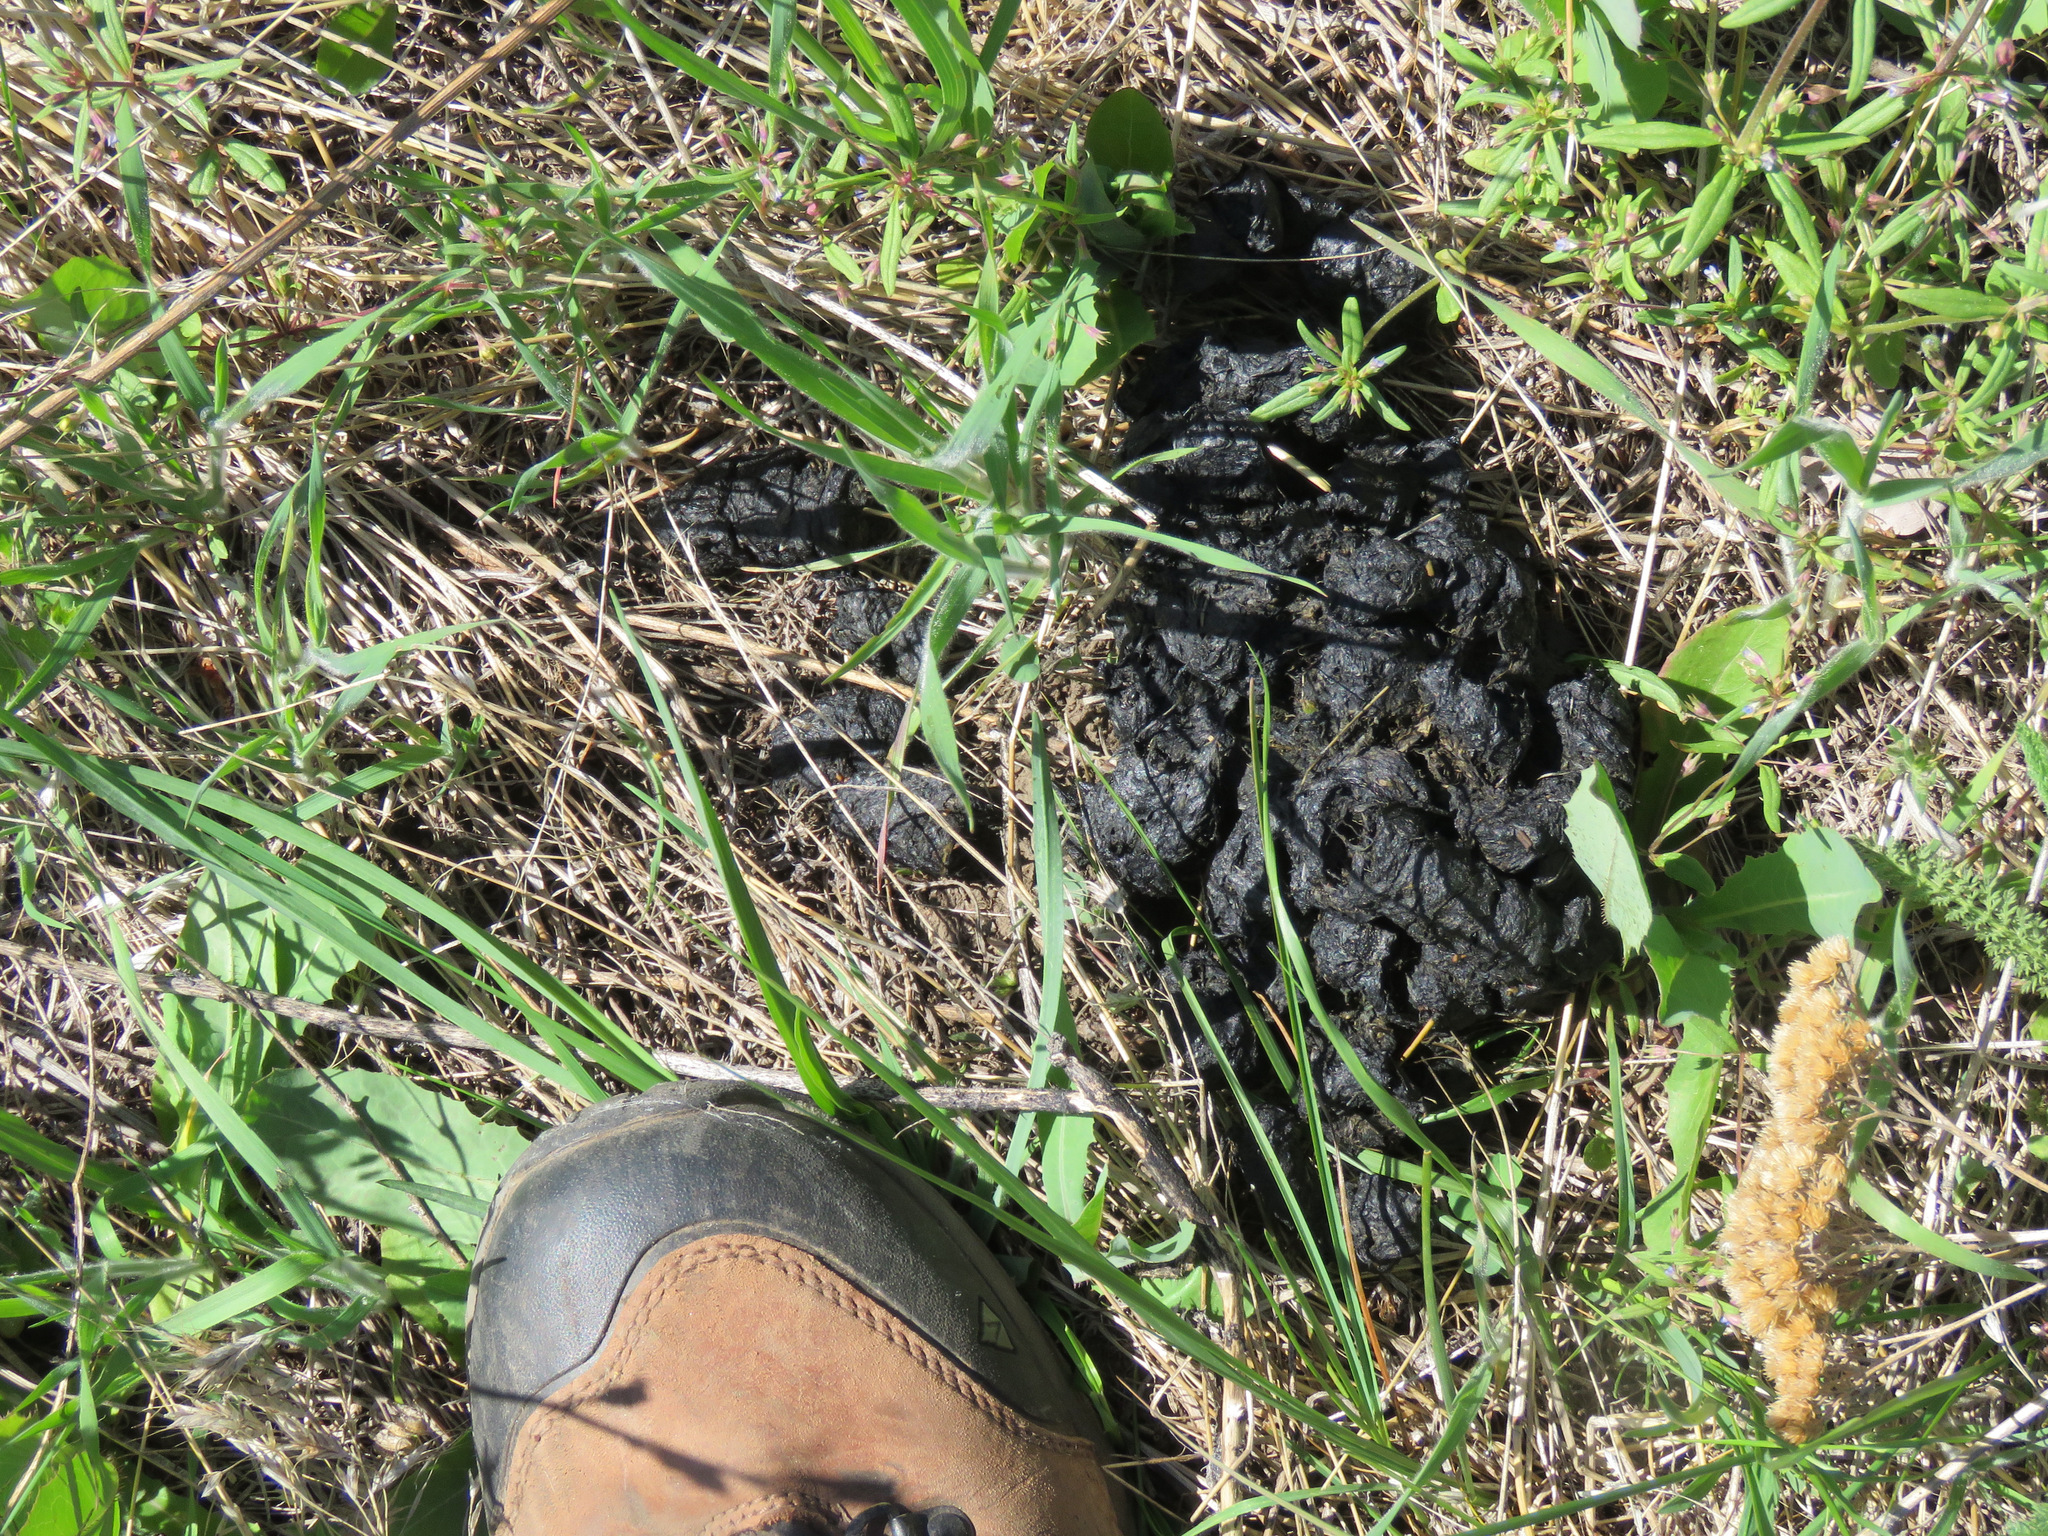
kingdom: Animalia
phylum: Chordata
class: Mammalia
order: Carnivora
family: Ursidae
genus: Ursus
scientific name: Ursus americanus
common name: American black bear
